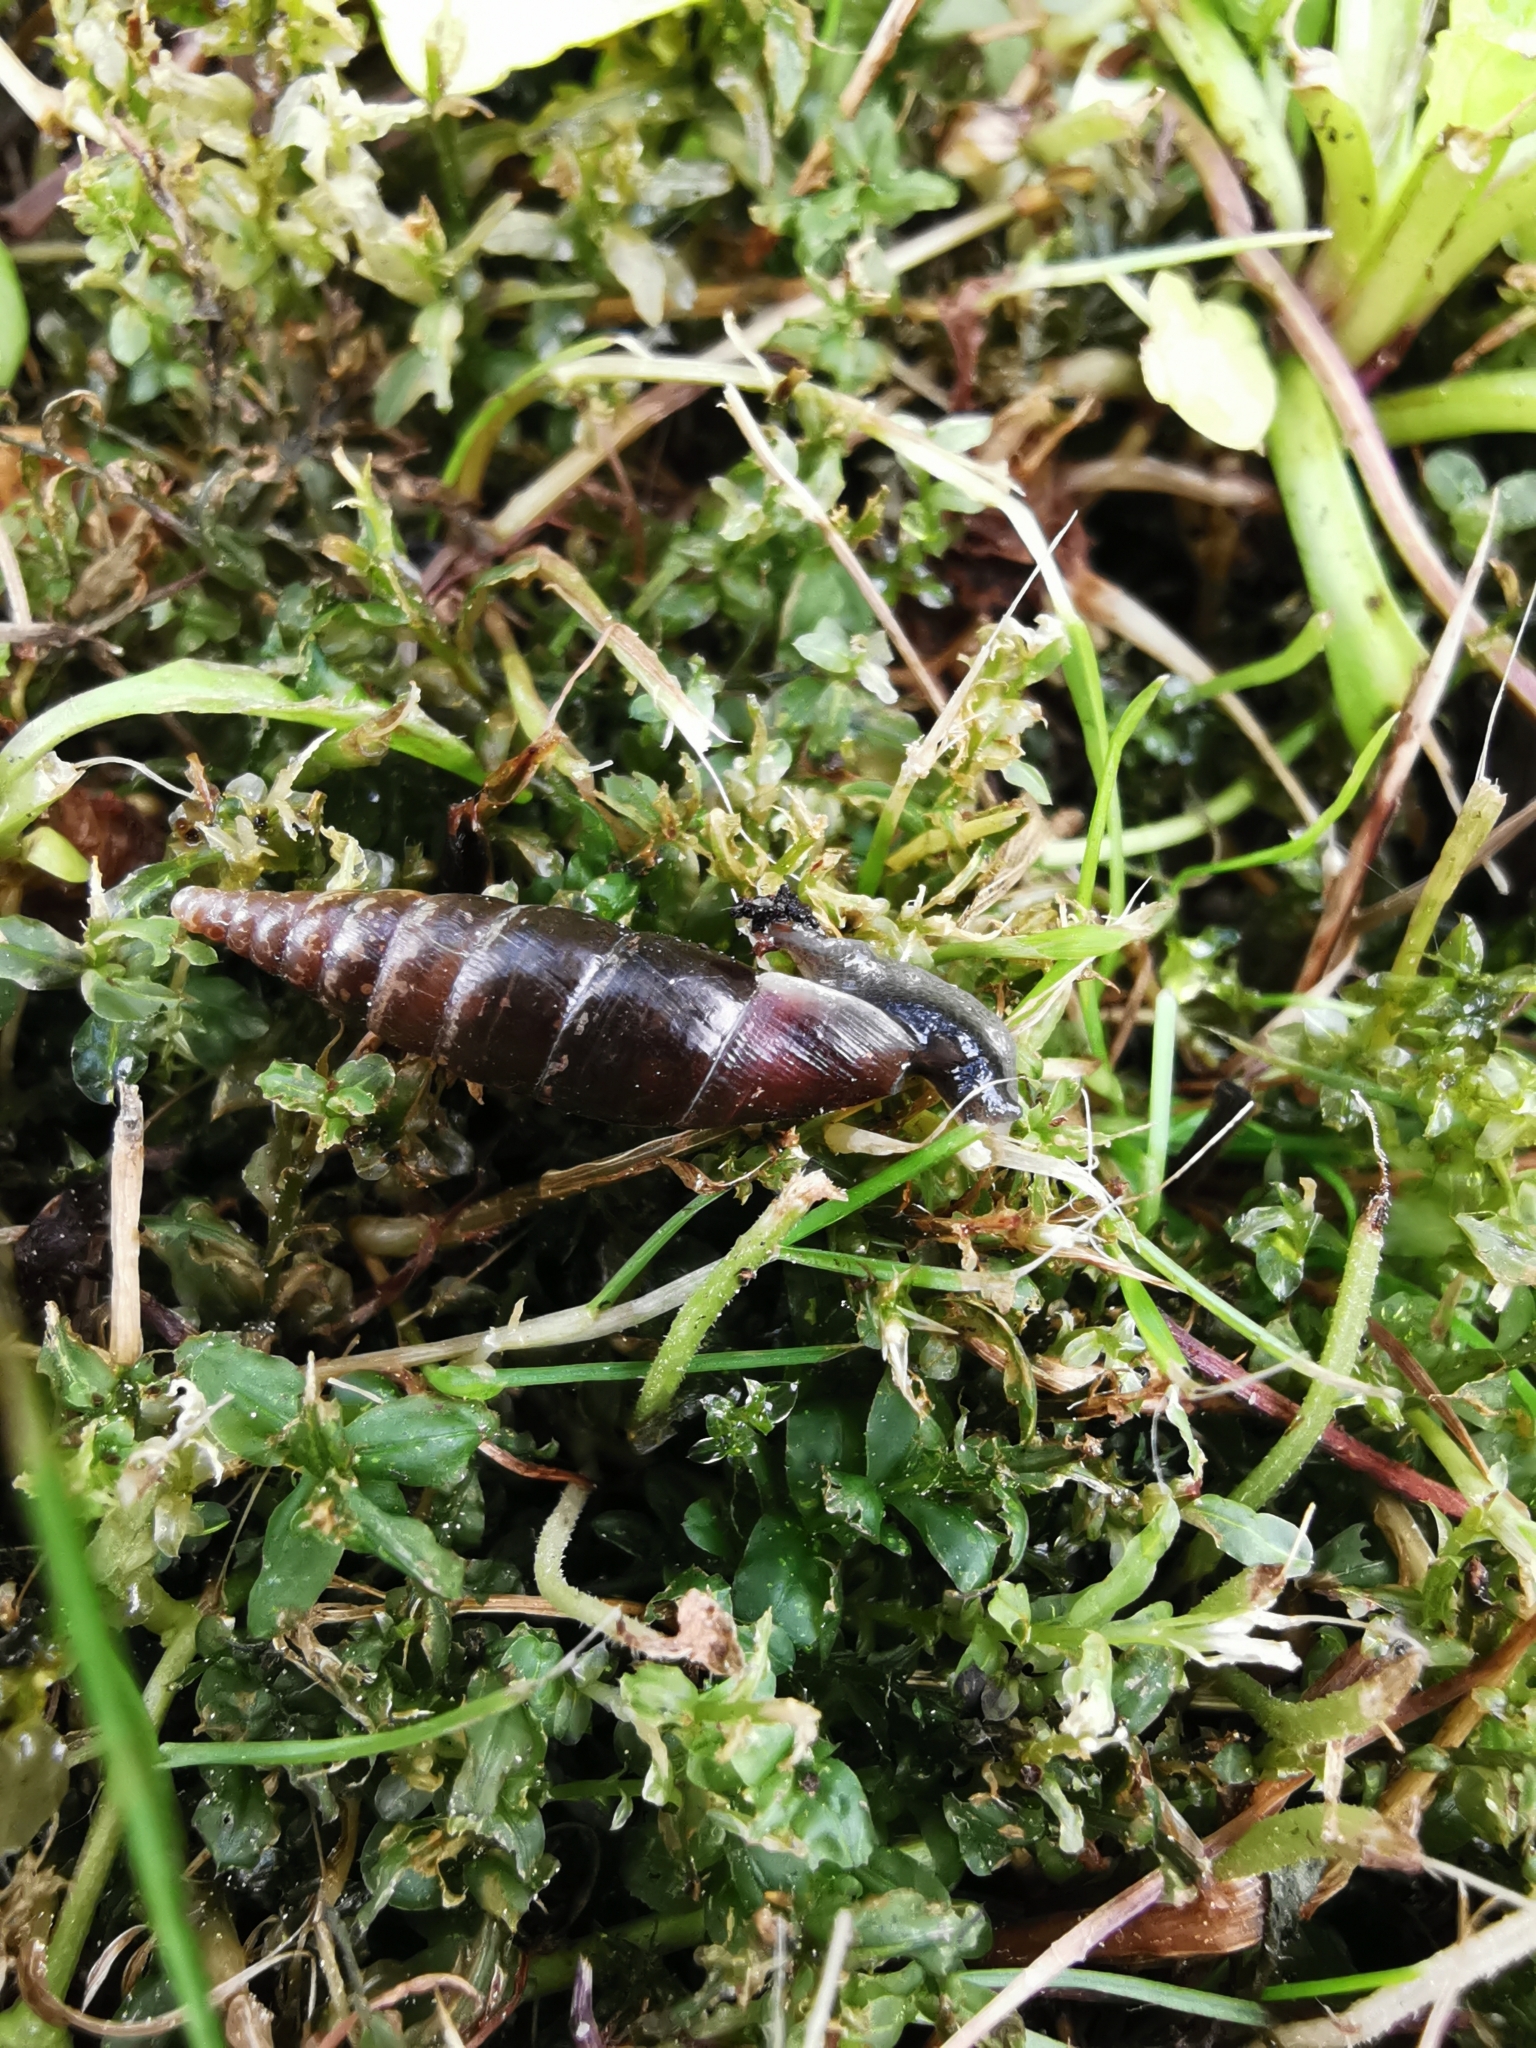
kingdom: Animalia
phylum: Mollusca
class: Gastropoda
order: Stylommatophora
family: Clausiliidae
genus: Cochlodina
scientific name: Cochlodina laminata
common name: Plaited door snail
